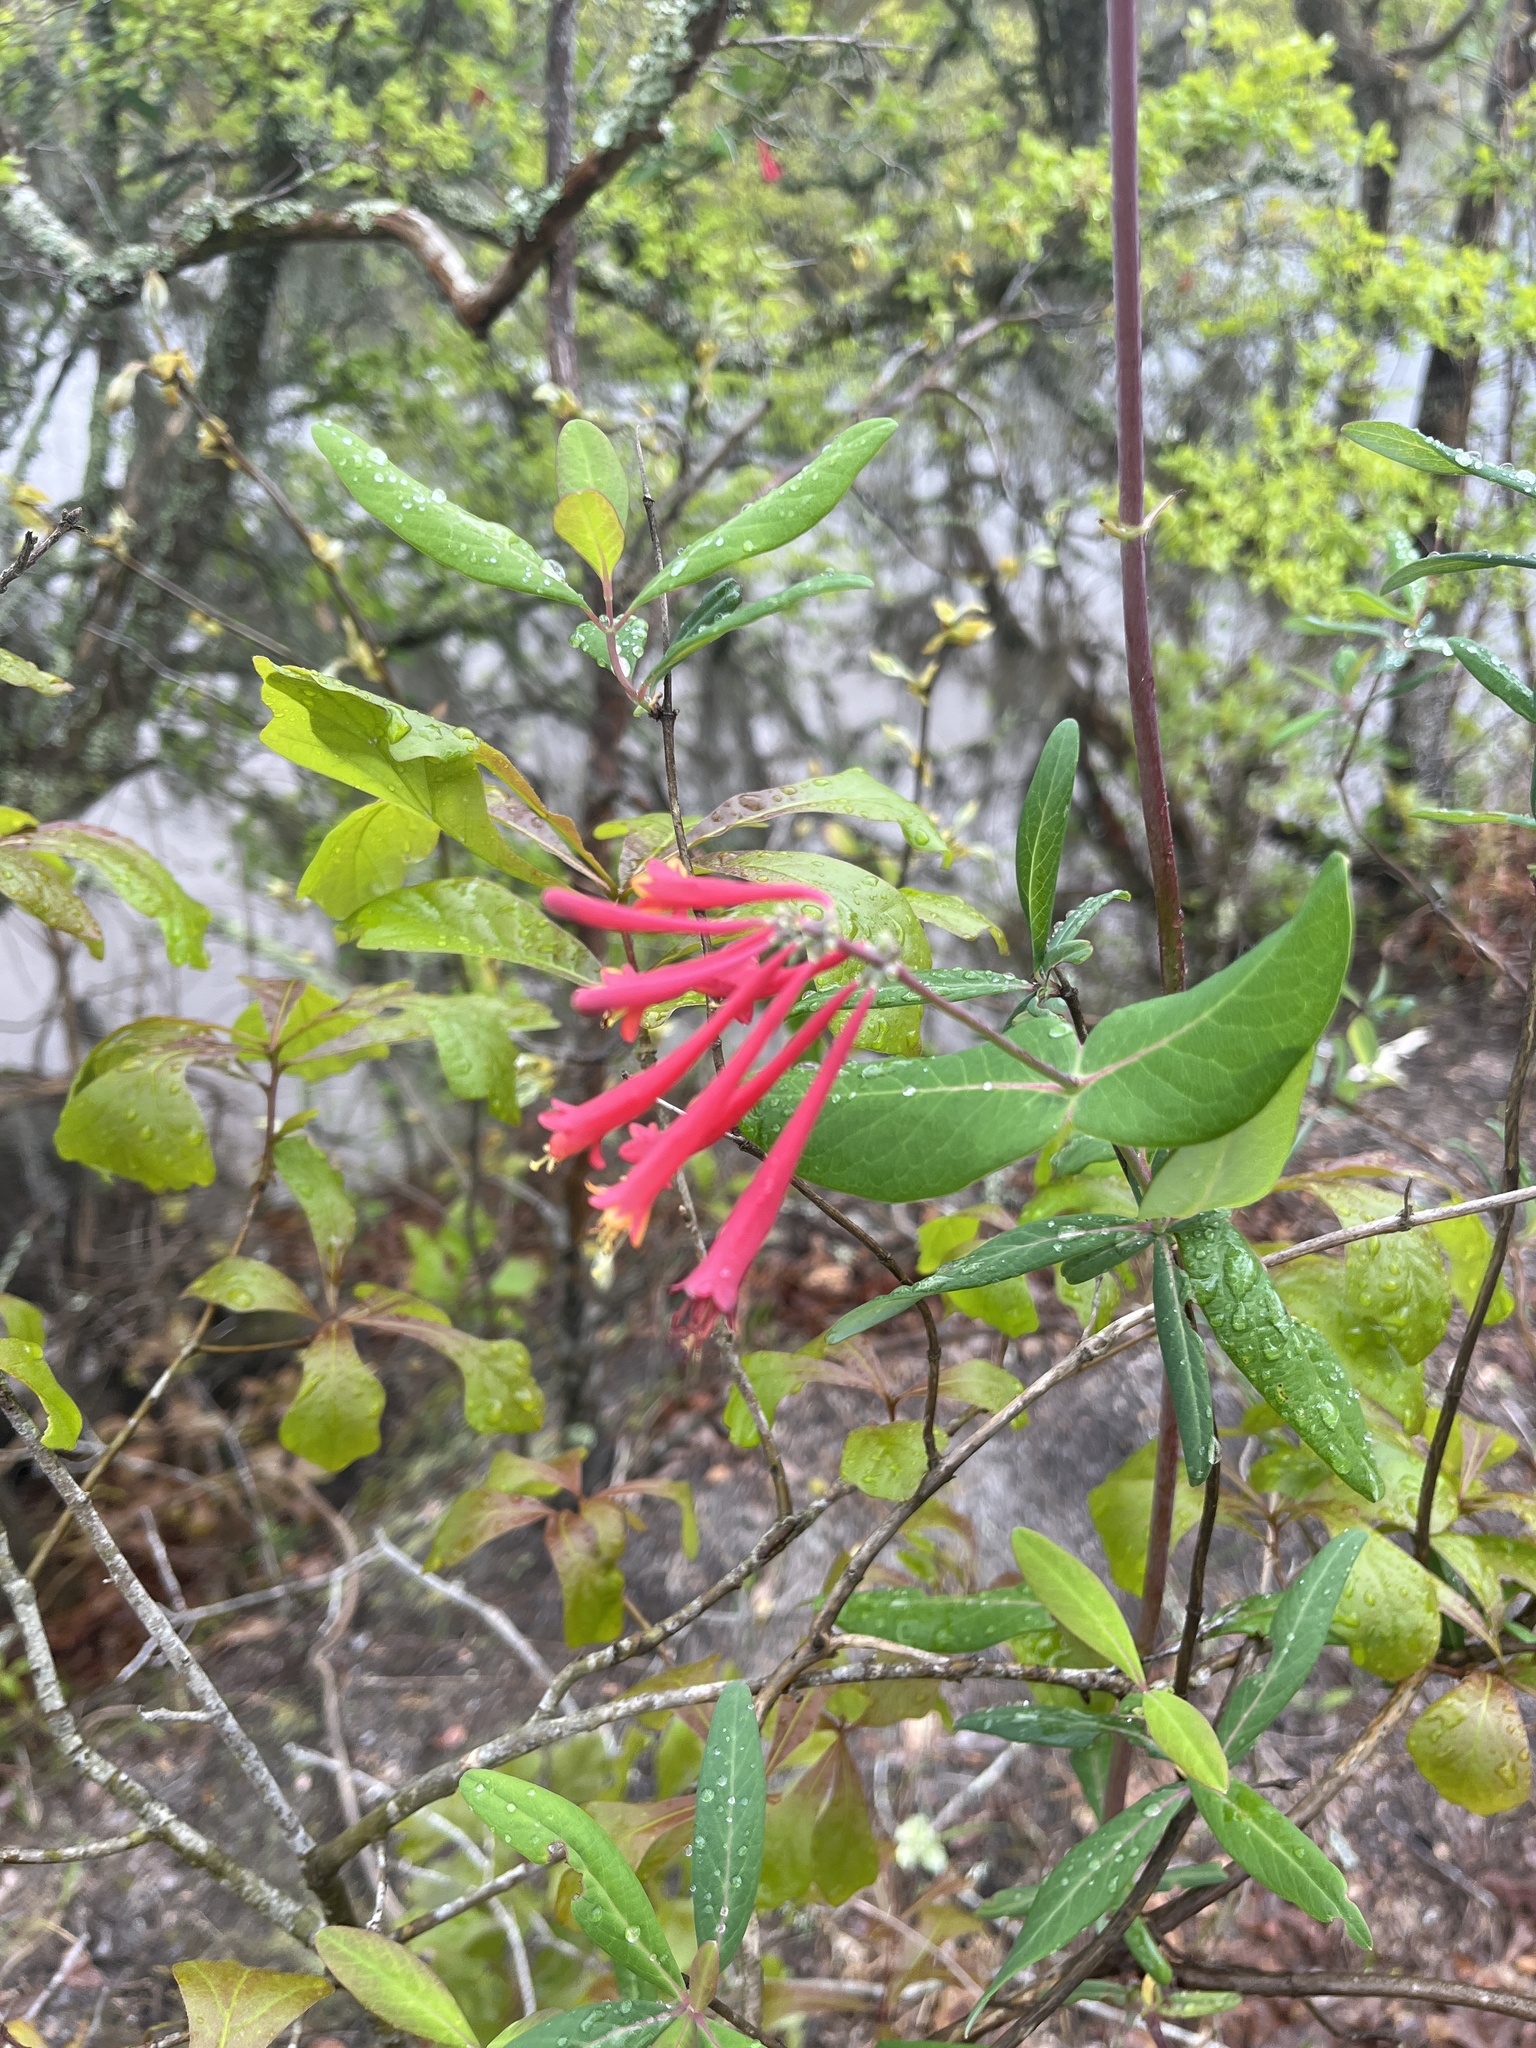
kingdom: Plantae
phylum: Tracheophyta
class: Magnoliopsida
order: Dipsacales
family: Caprifoliaceae
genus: Lonicera
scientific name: Lonicera sempervirens
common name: Coral honeysuckle
